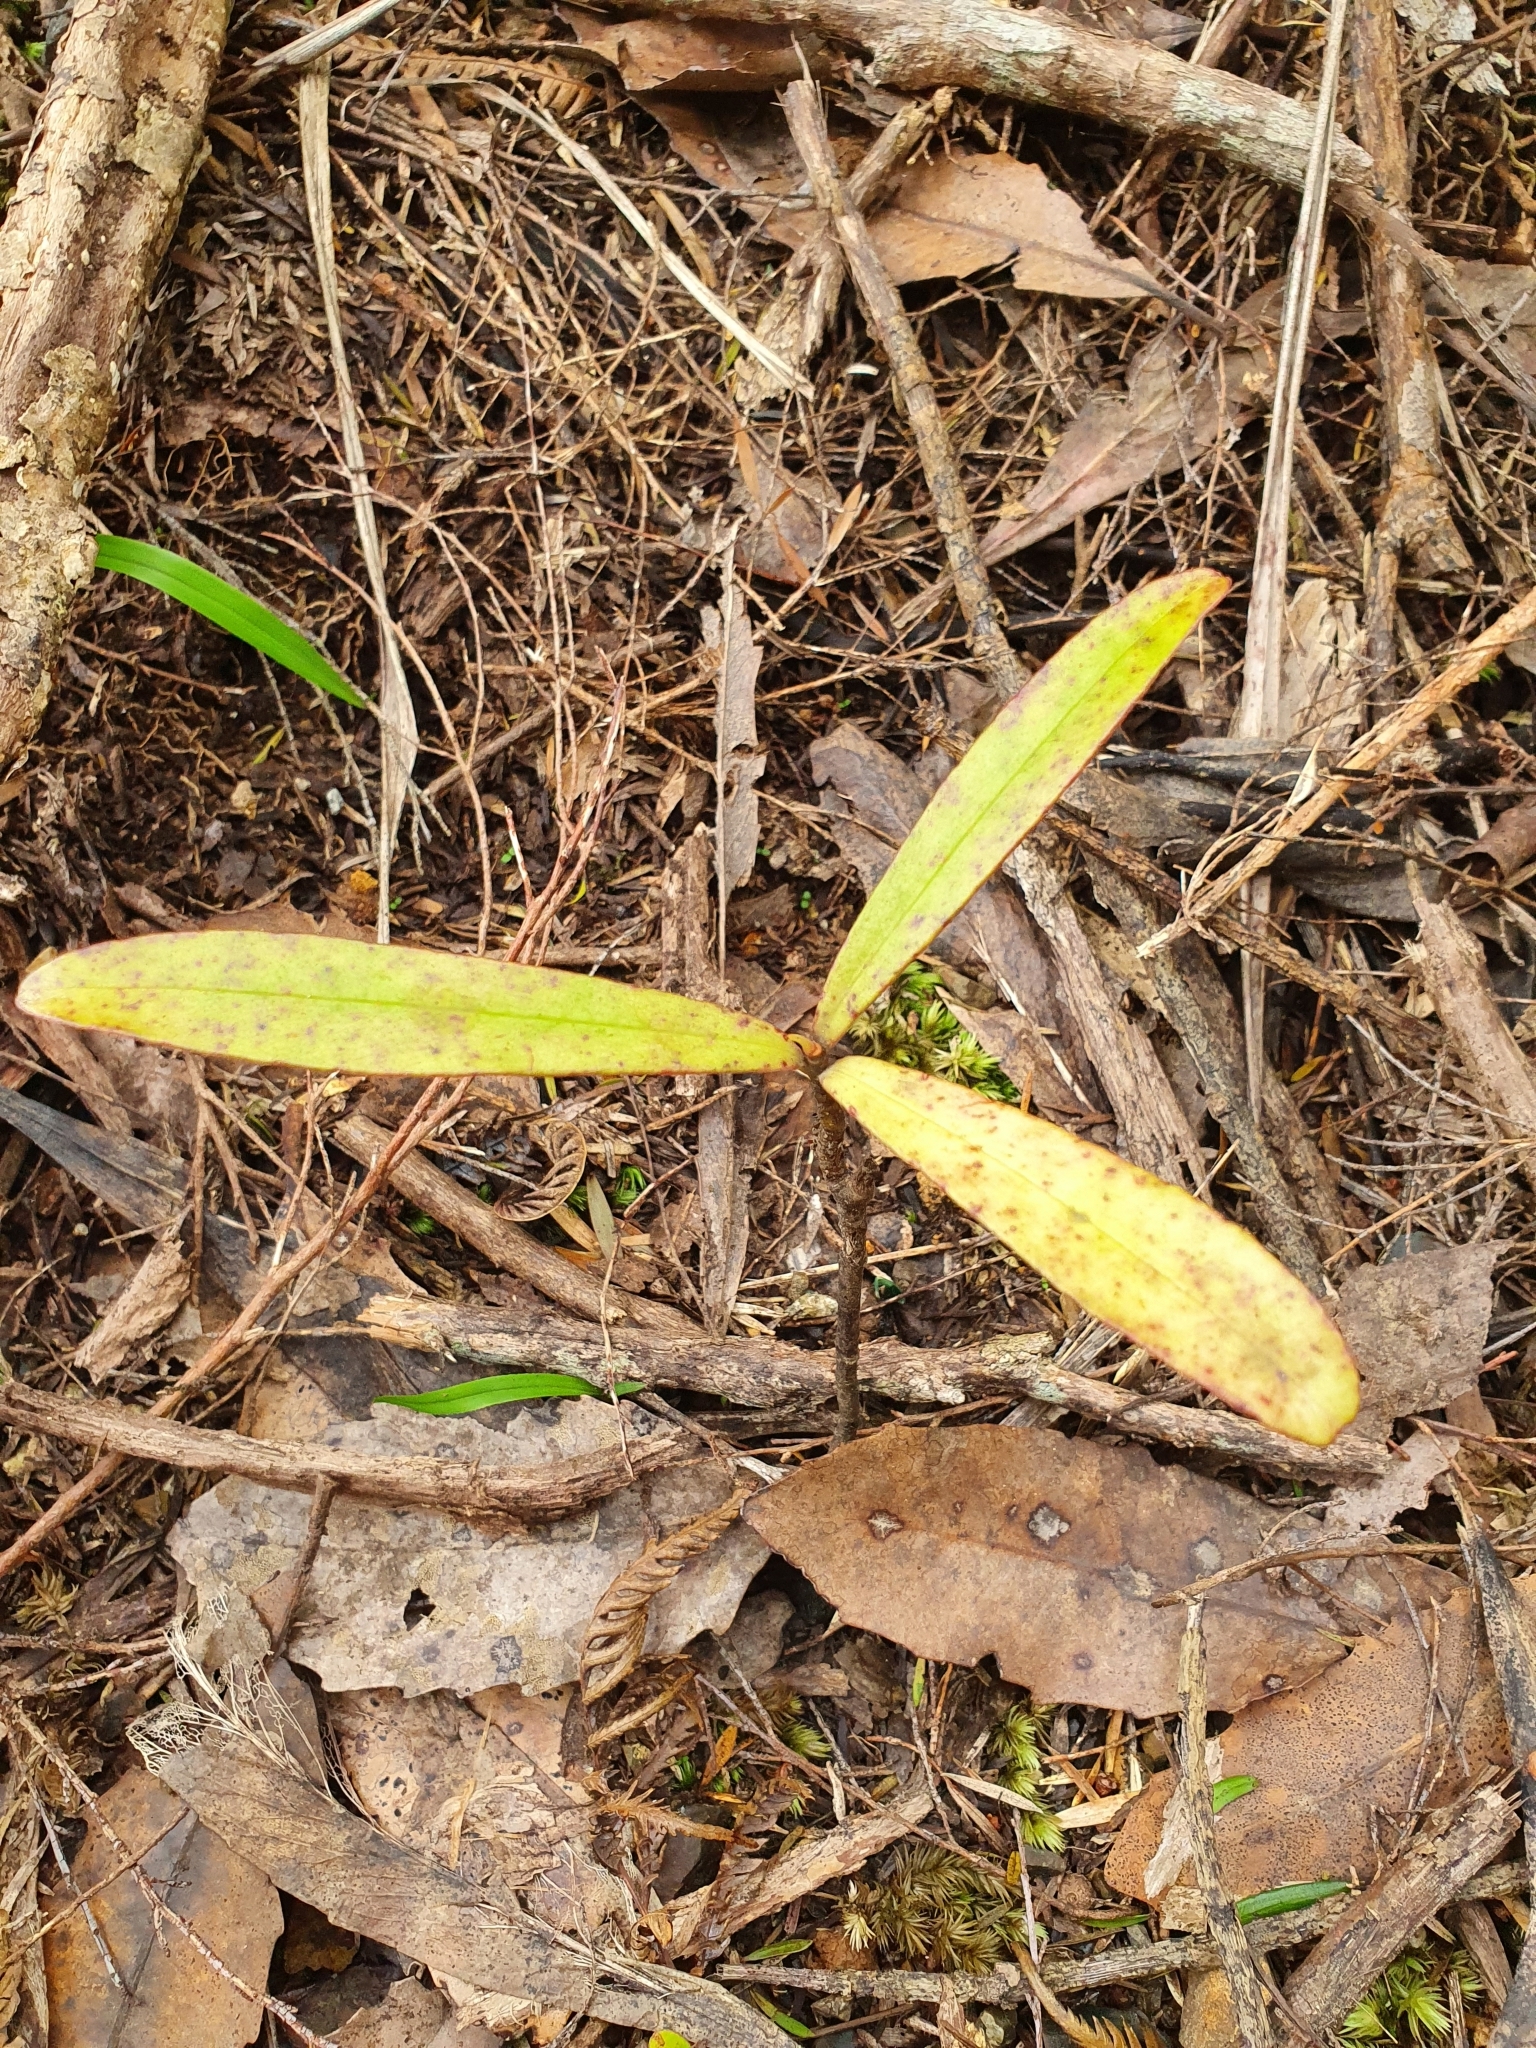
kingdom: Plantae
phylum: Tracheophyta
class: Magnoliopsida
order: Ericales
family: Primulaceae
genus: Myrsine
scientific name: Myrsine salicina
